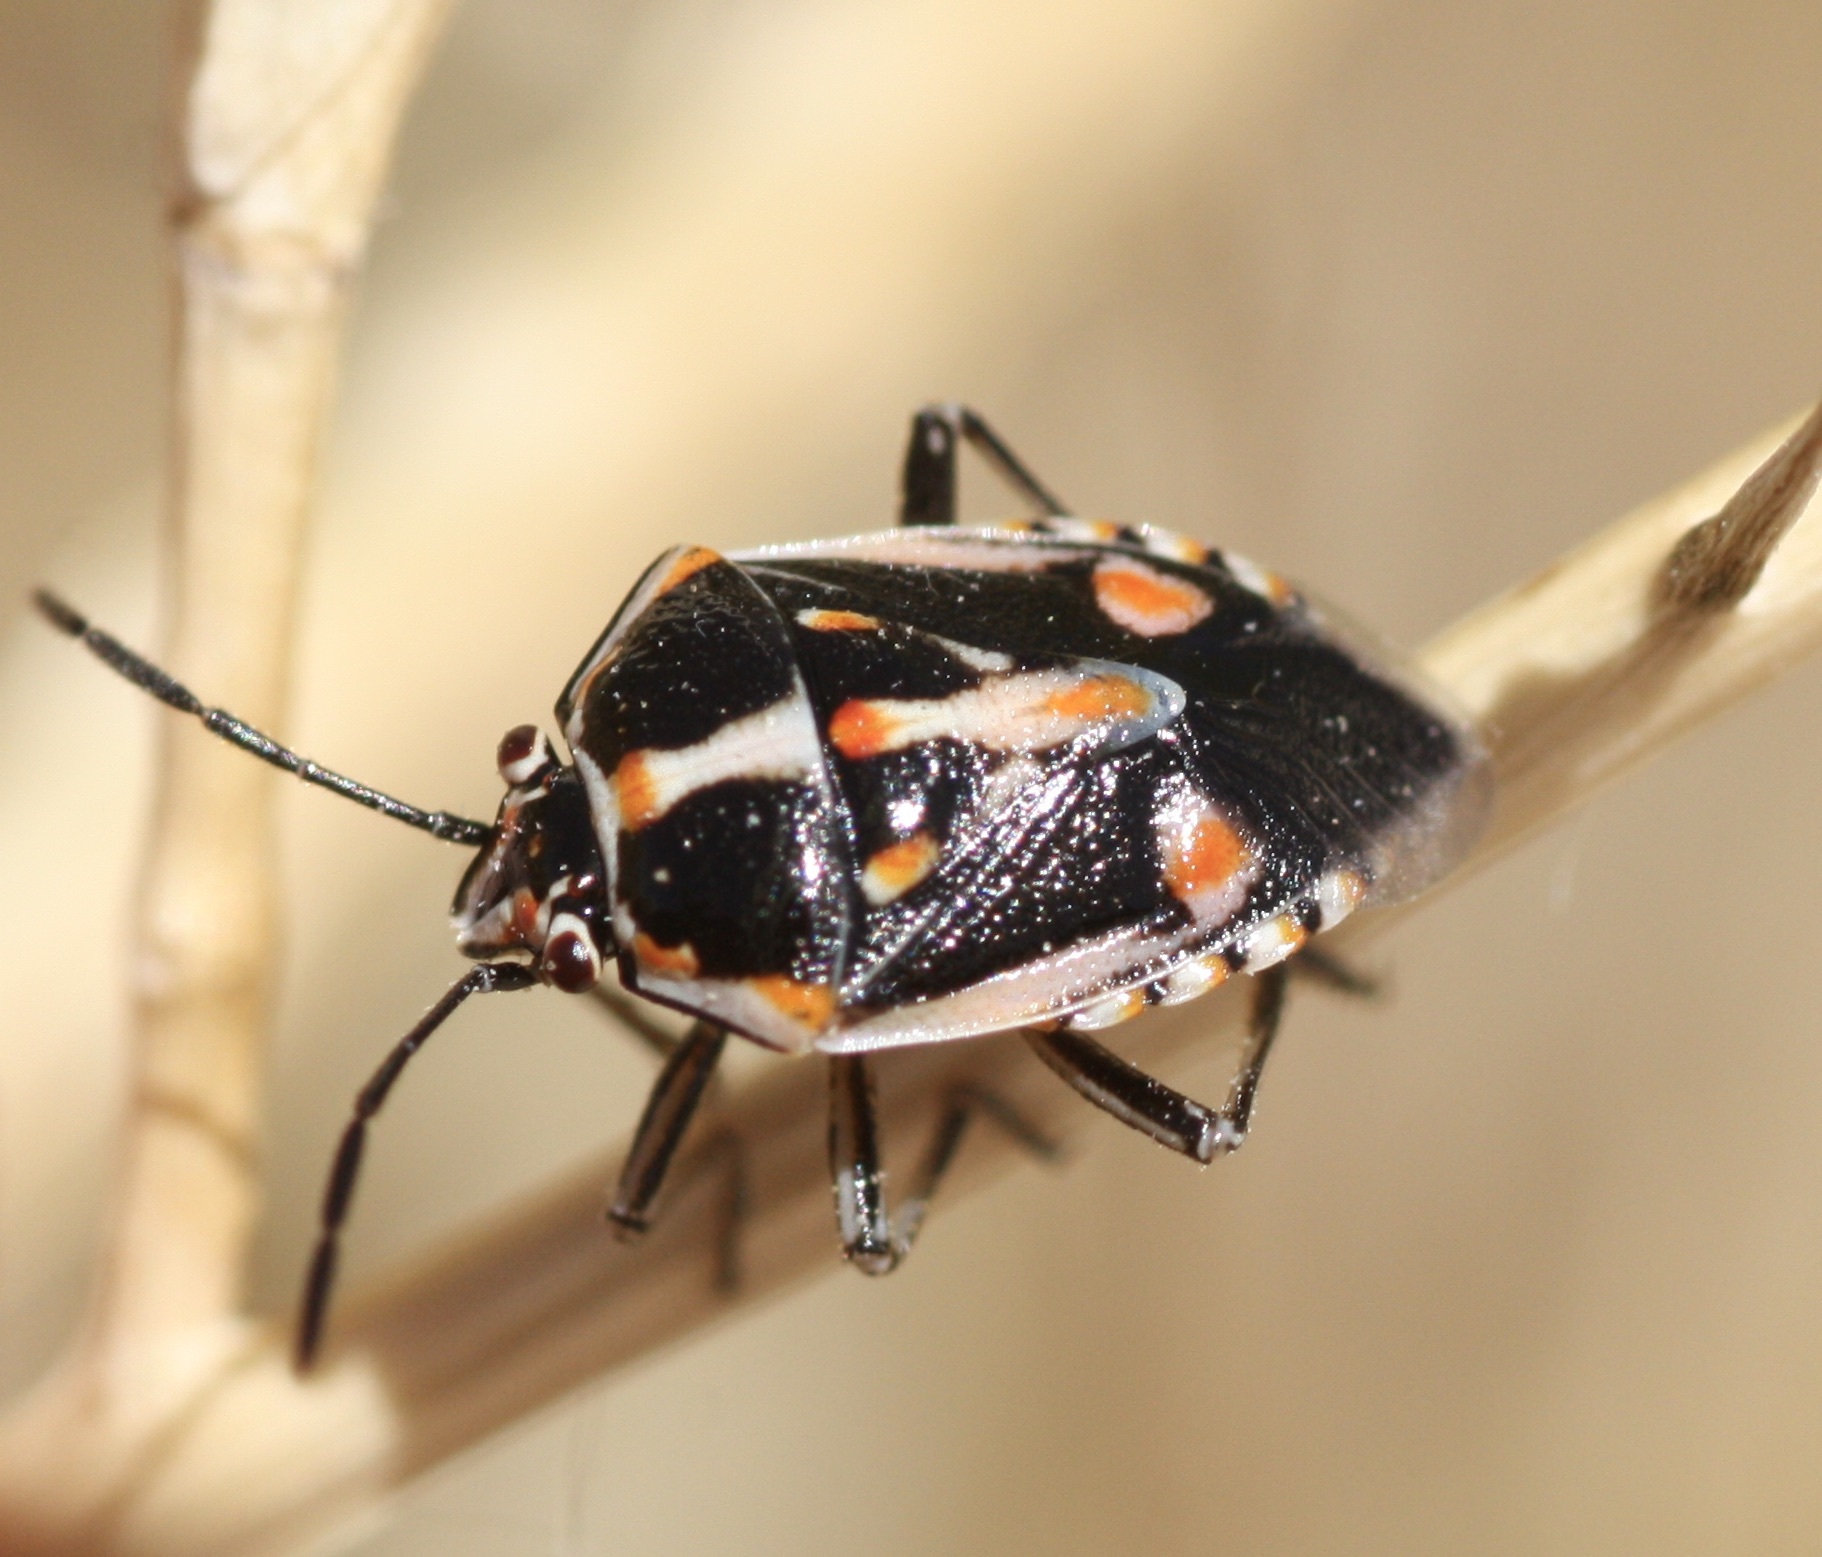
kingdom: Animalia
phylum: Arthropoda
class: Insecta
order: Hemiptera
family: Pentatomidae
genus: Bagrada
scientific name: Bagrada hilaris
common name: Bagrada bug
